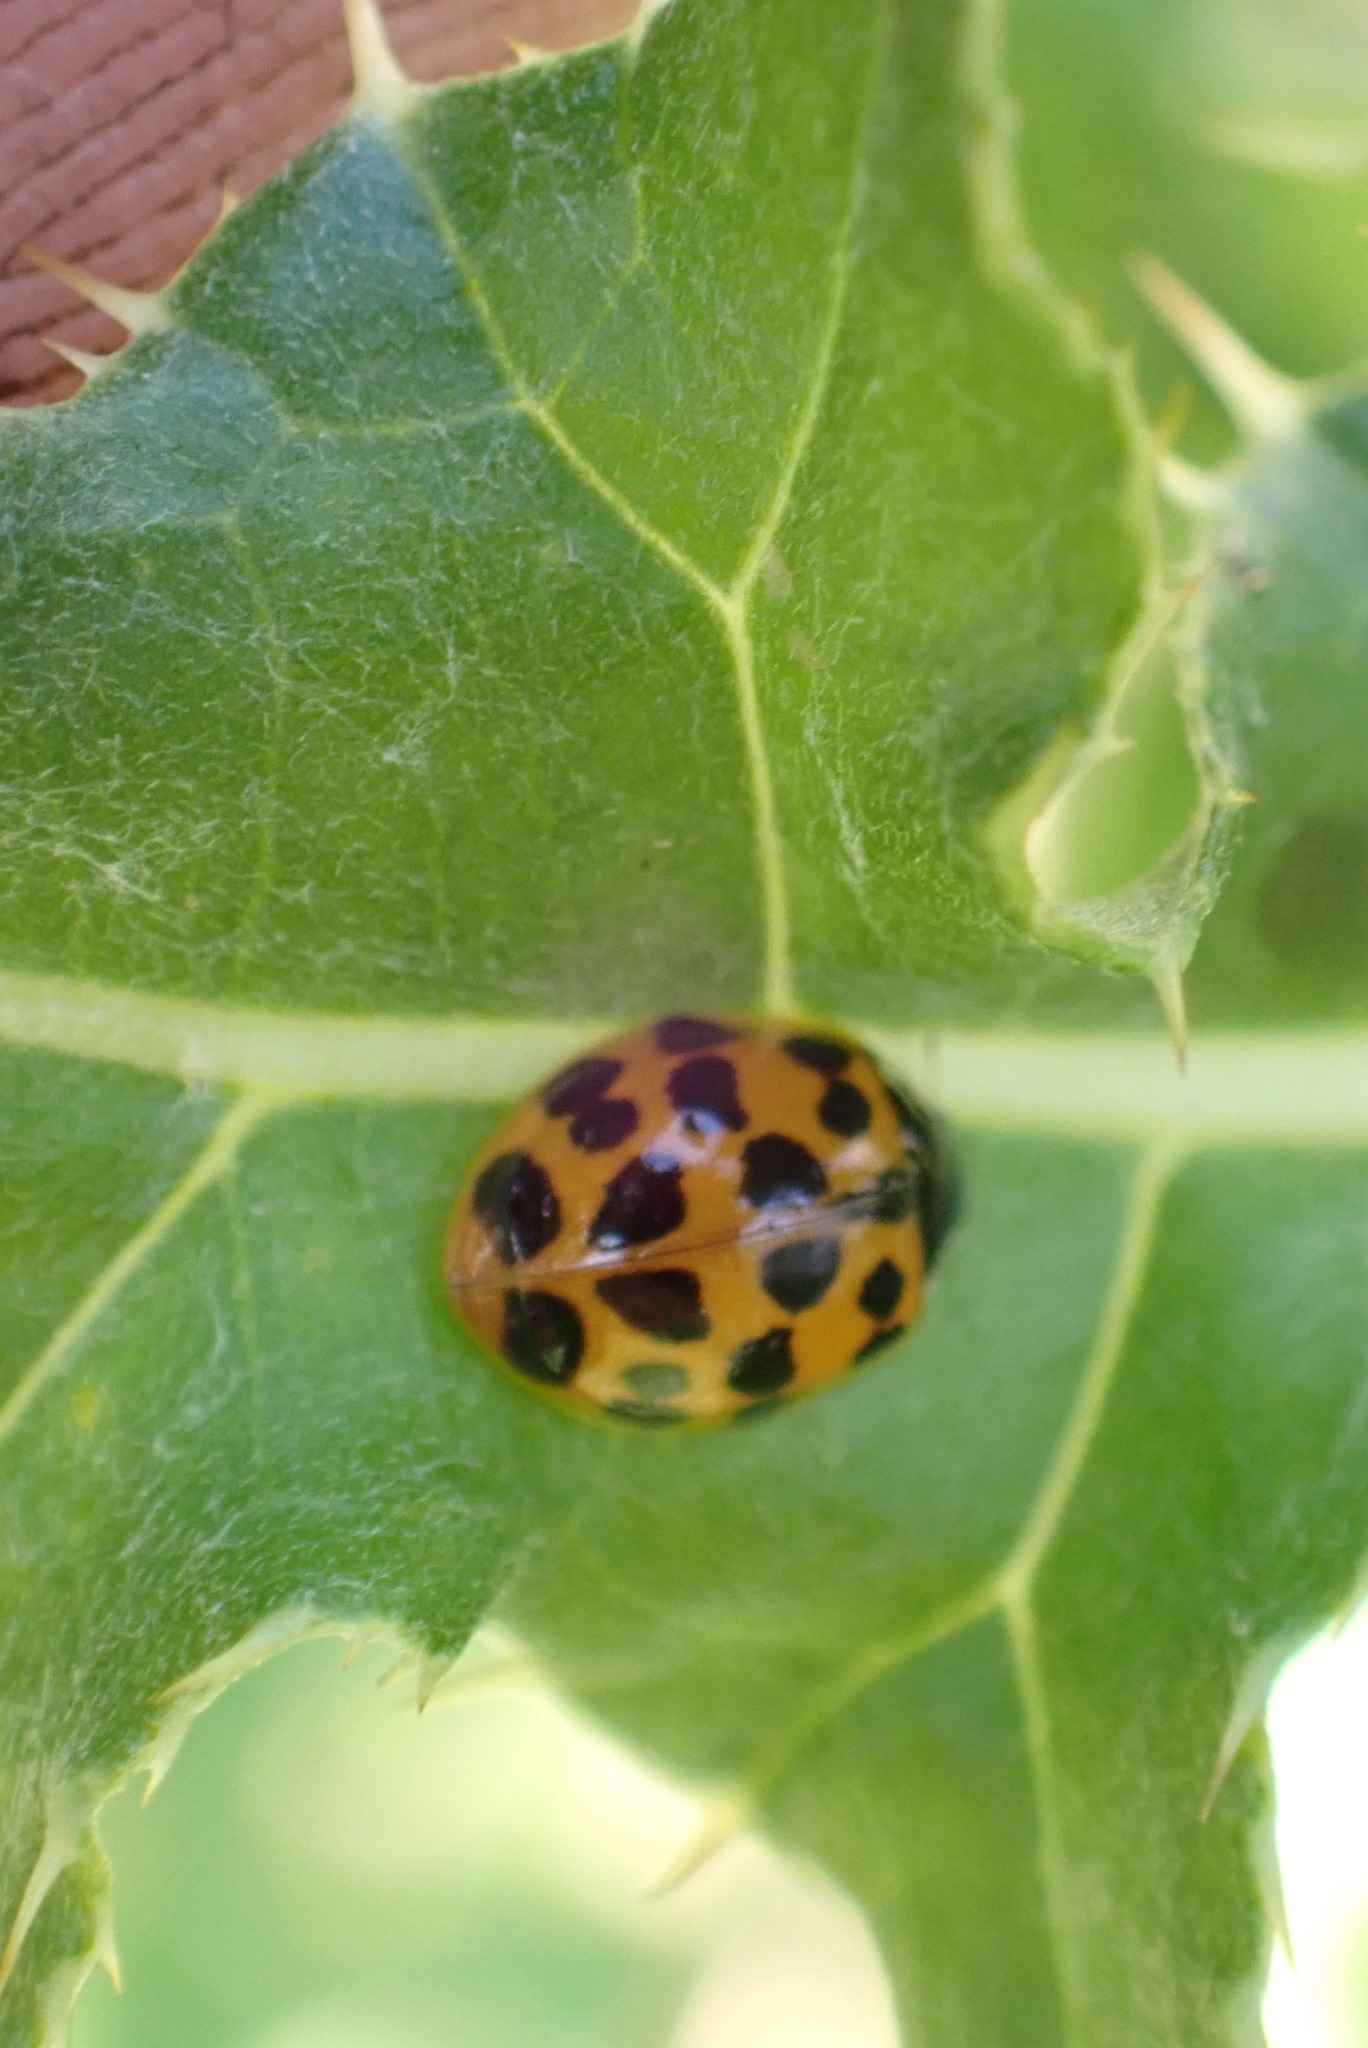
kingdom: Animalia
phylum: Arthropoda
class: Insecta
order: Coleoptera
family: Coccinellidae
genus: Harmonia
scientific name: Harmonia axyridis
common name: Harlequin ladybird
